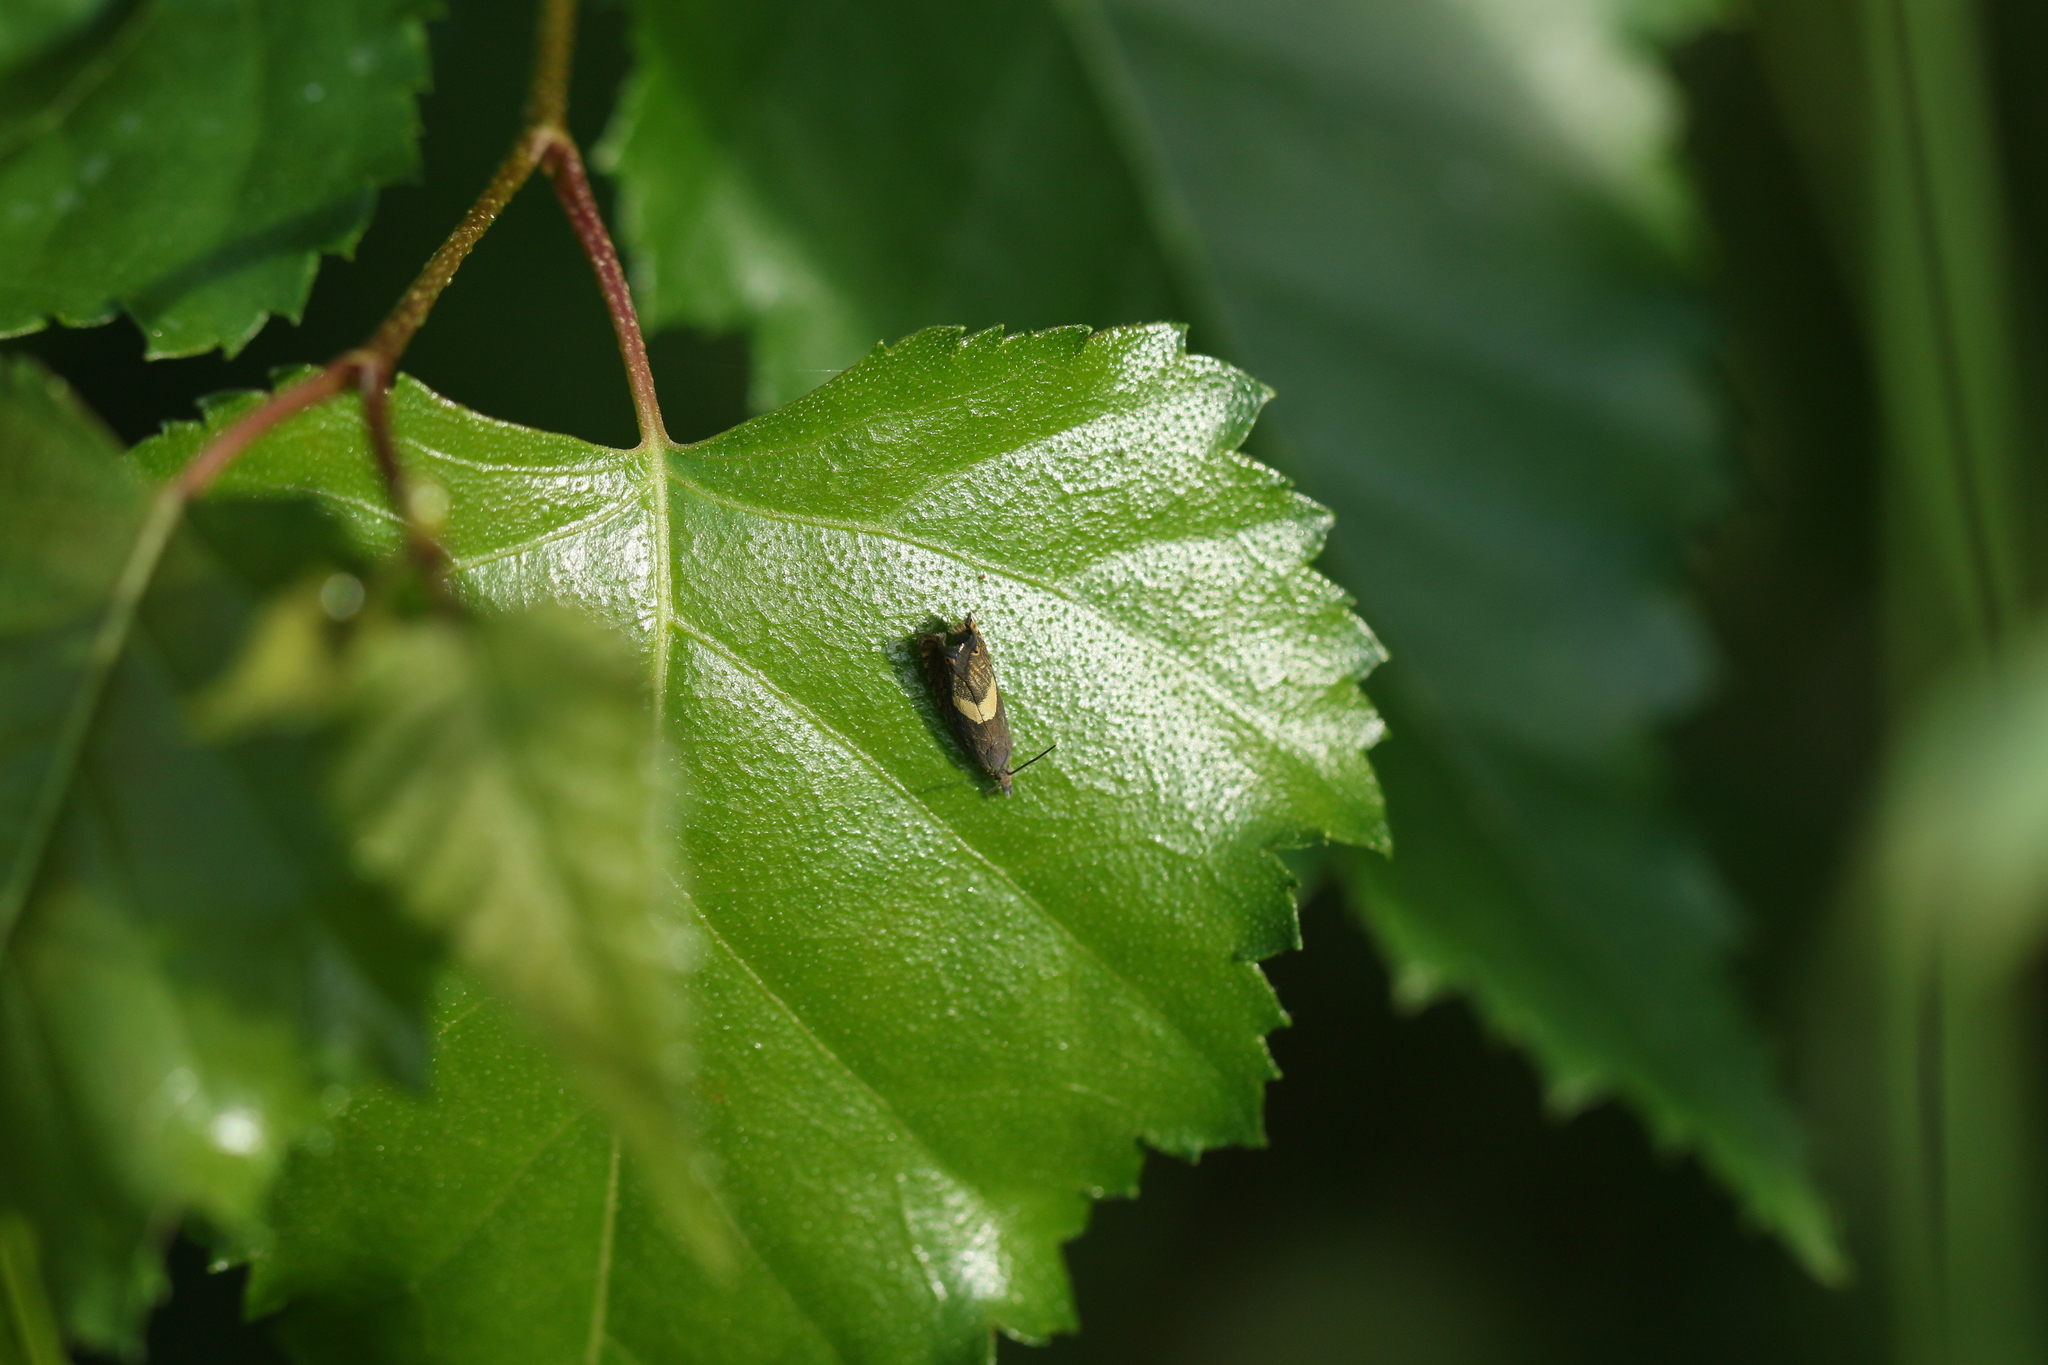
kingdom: Animalia
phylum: Arthropoda
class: Insecta
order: Lepidoptera
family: Glyphipterigidae
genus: Glyphipterix
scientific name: Glyphipterix Diploschizia impigritella
